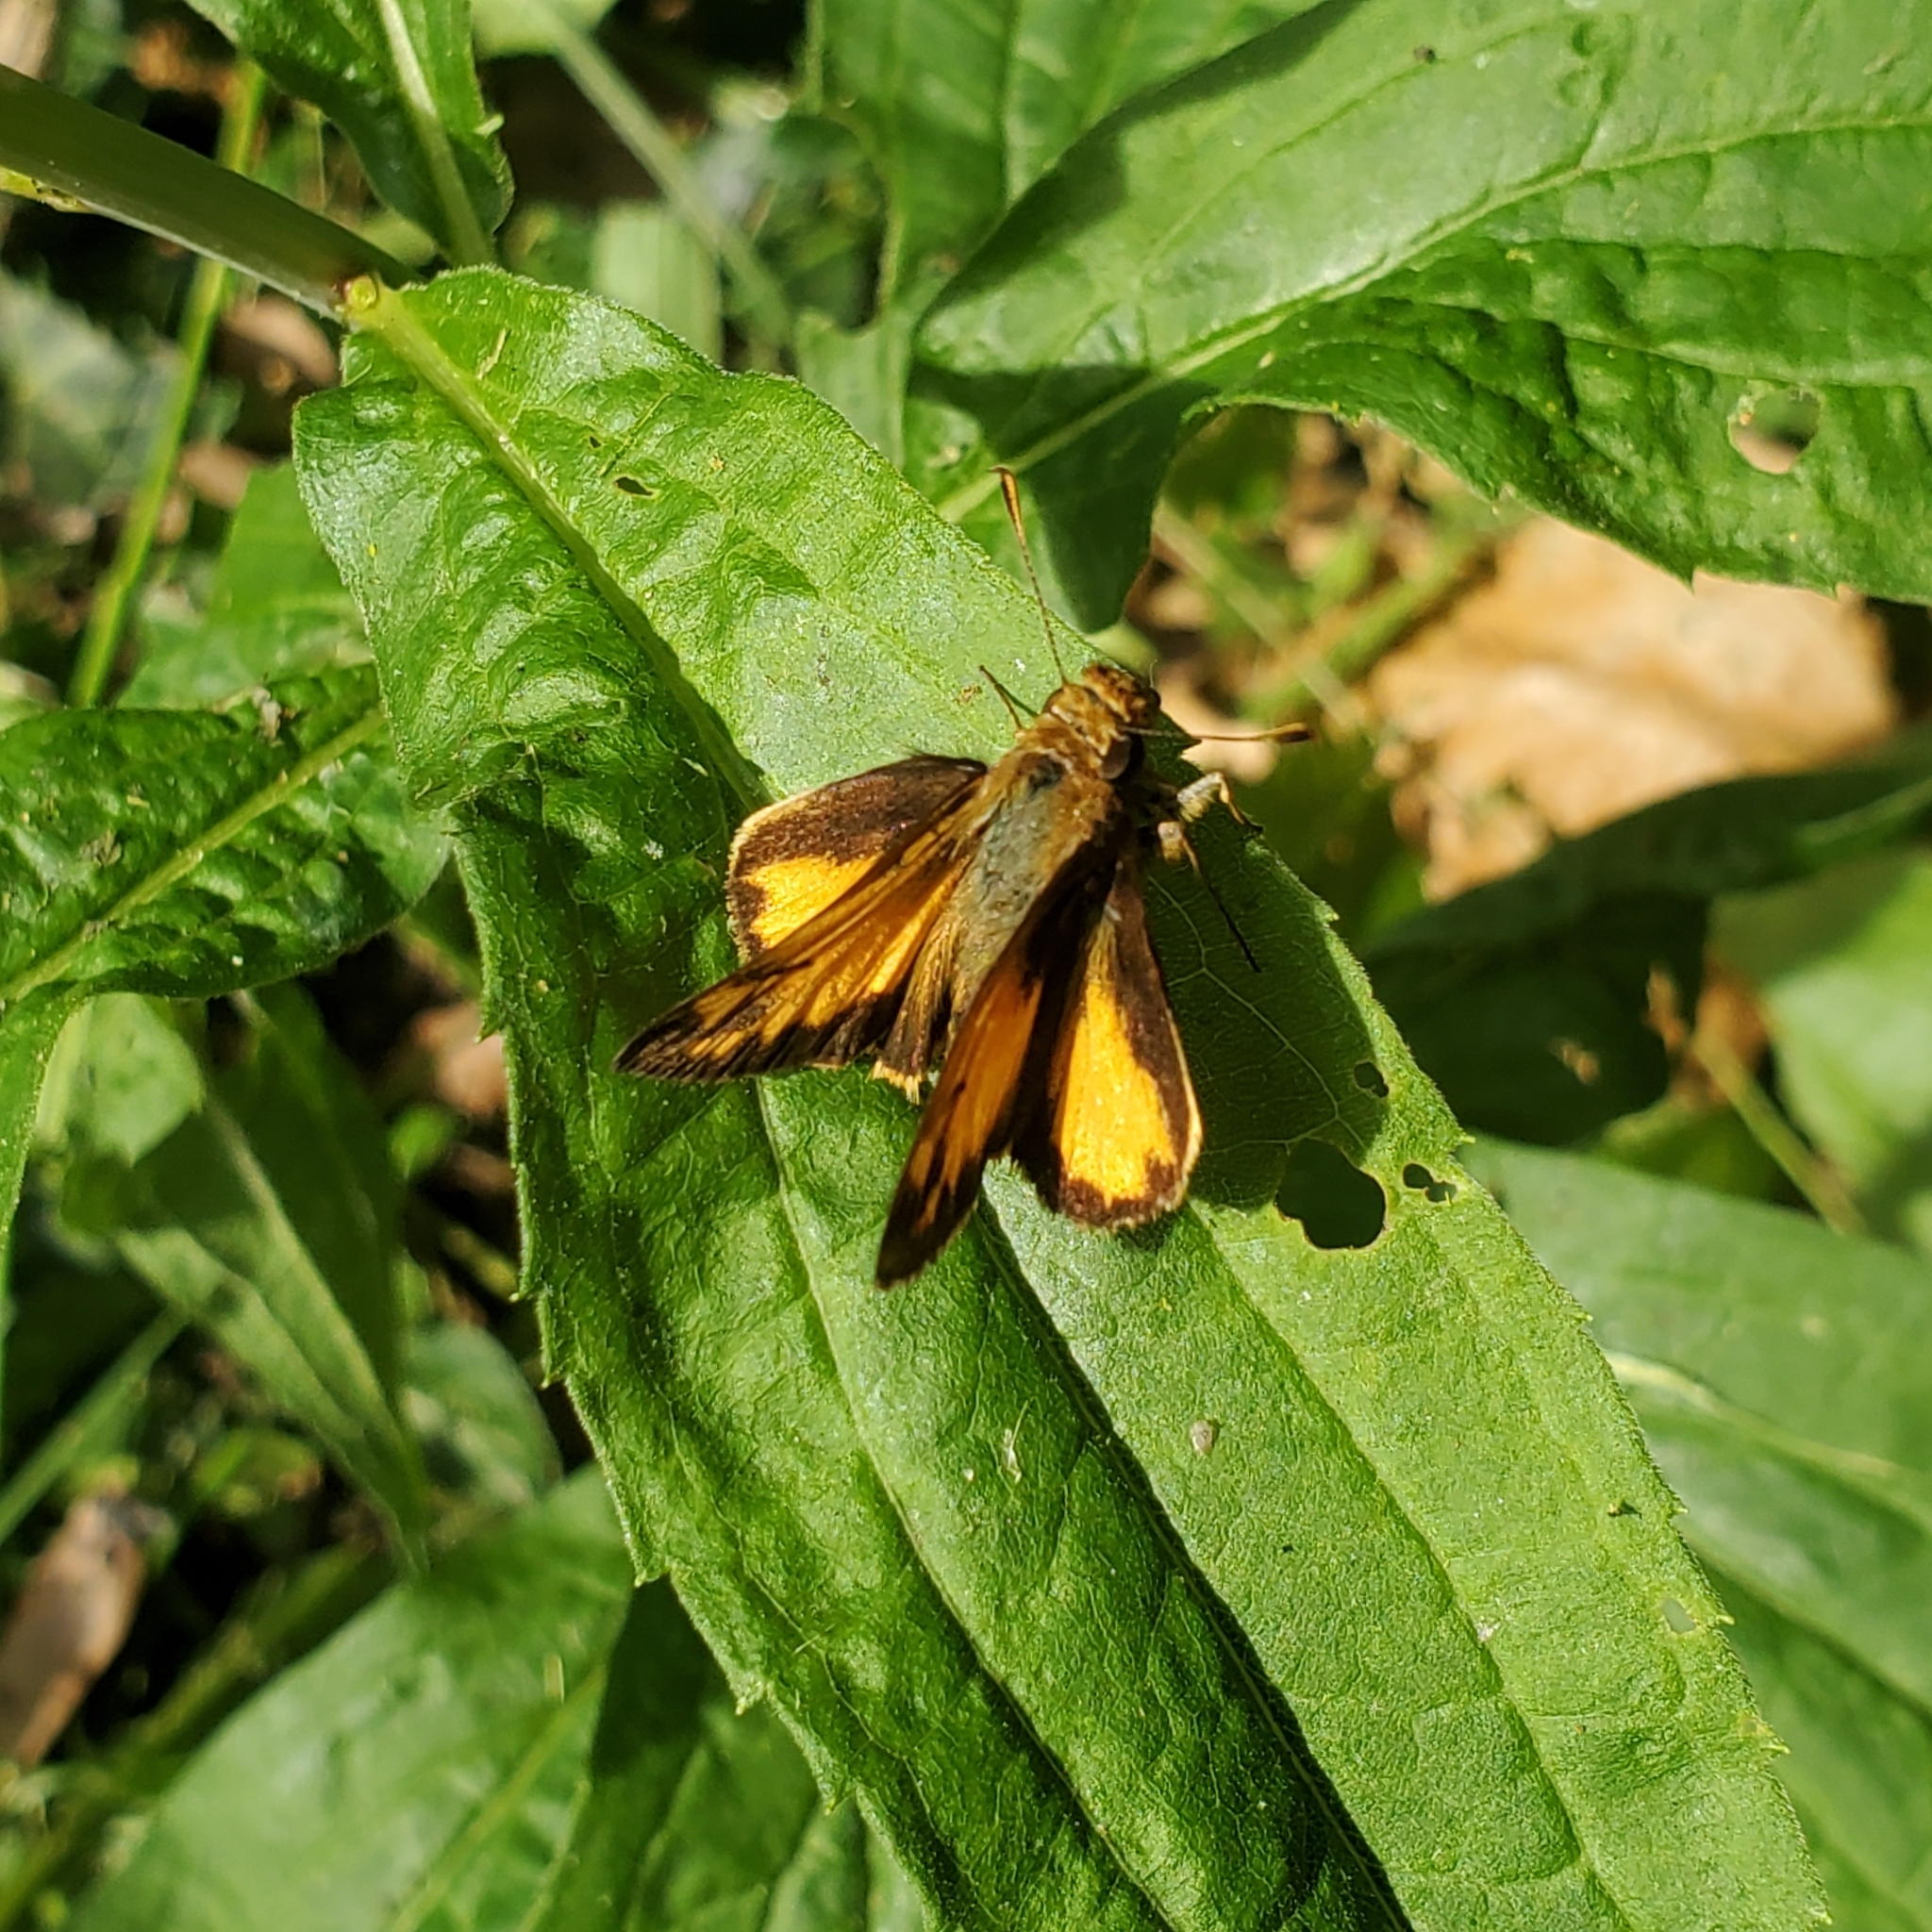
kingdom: Animalia
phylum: Arthropoda
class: Insecta
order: Lepidoptera
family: Hesperiidae
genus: Lon
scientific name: Lon zabulon
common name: Zabulon skipper
